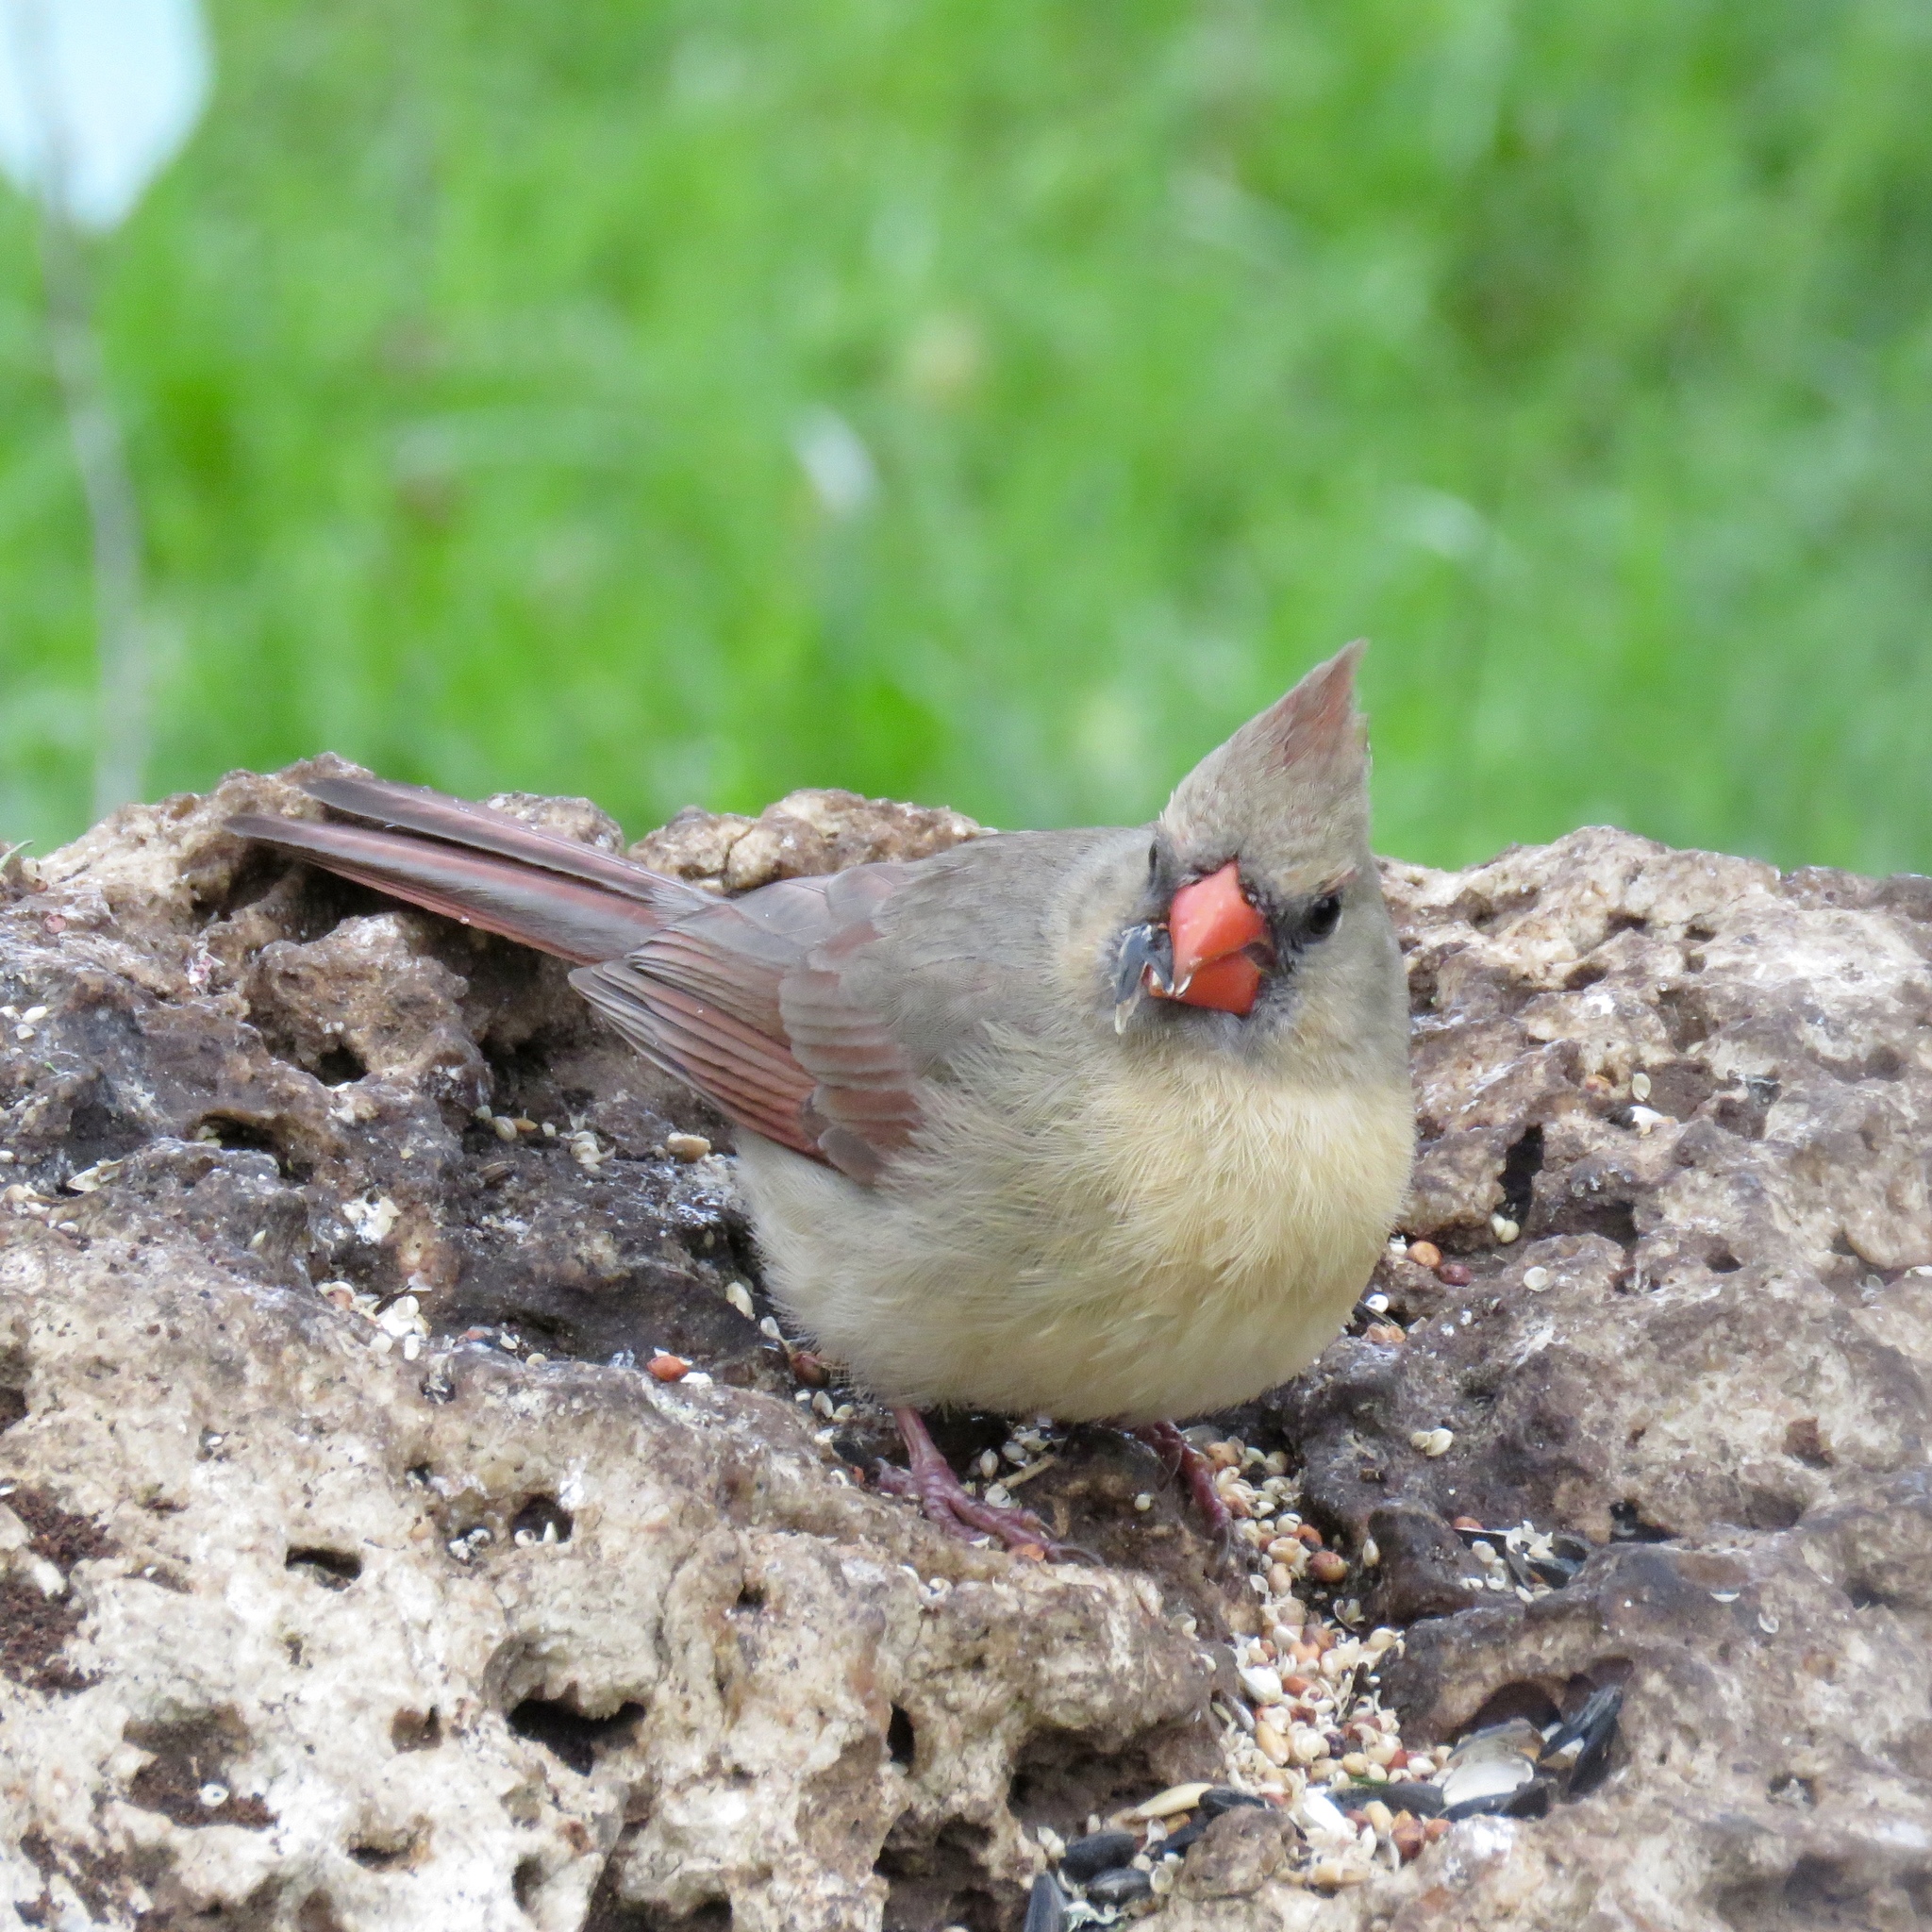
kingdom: Animalia
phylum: Chordata
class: Aves
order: Passeriformes
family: Cardinalidae
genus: Cardinalis
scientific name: Cardinalis cardinalis
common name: Northern cardinal
